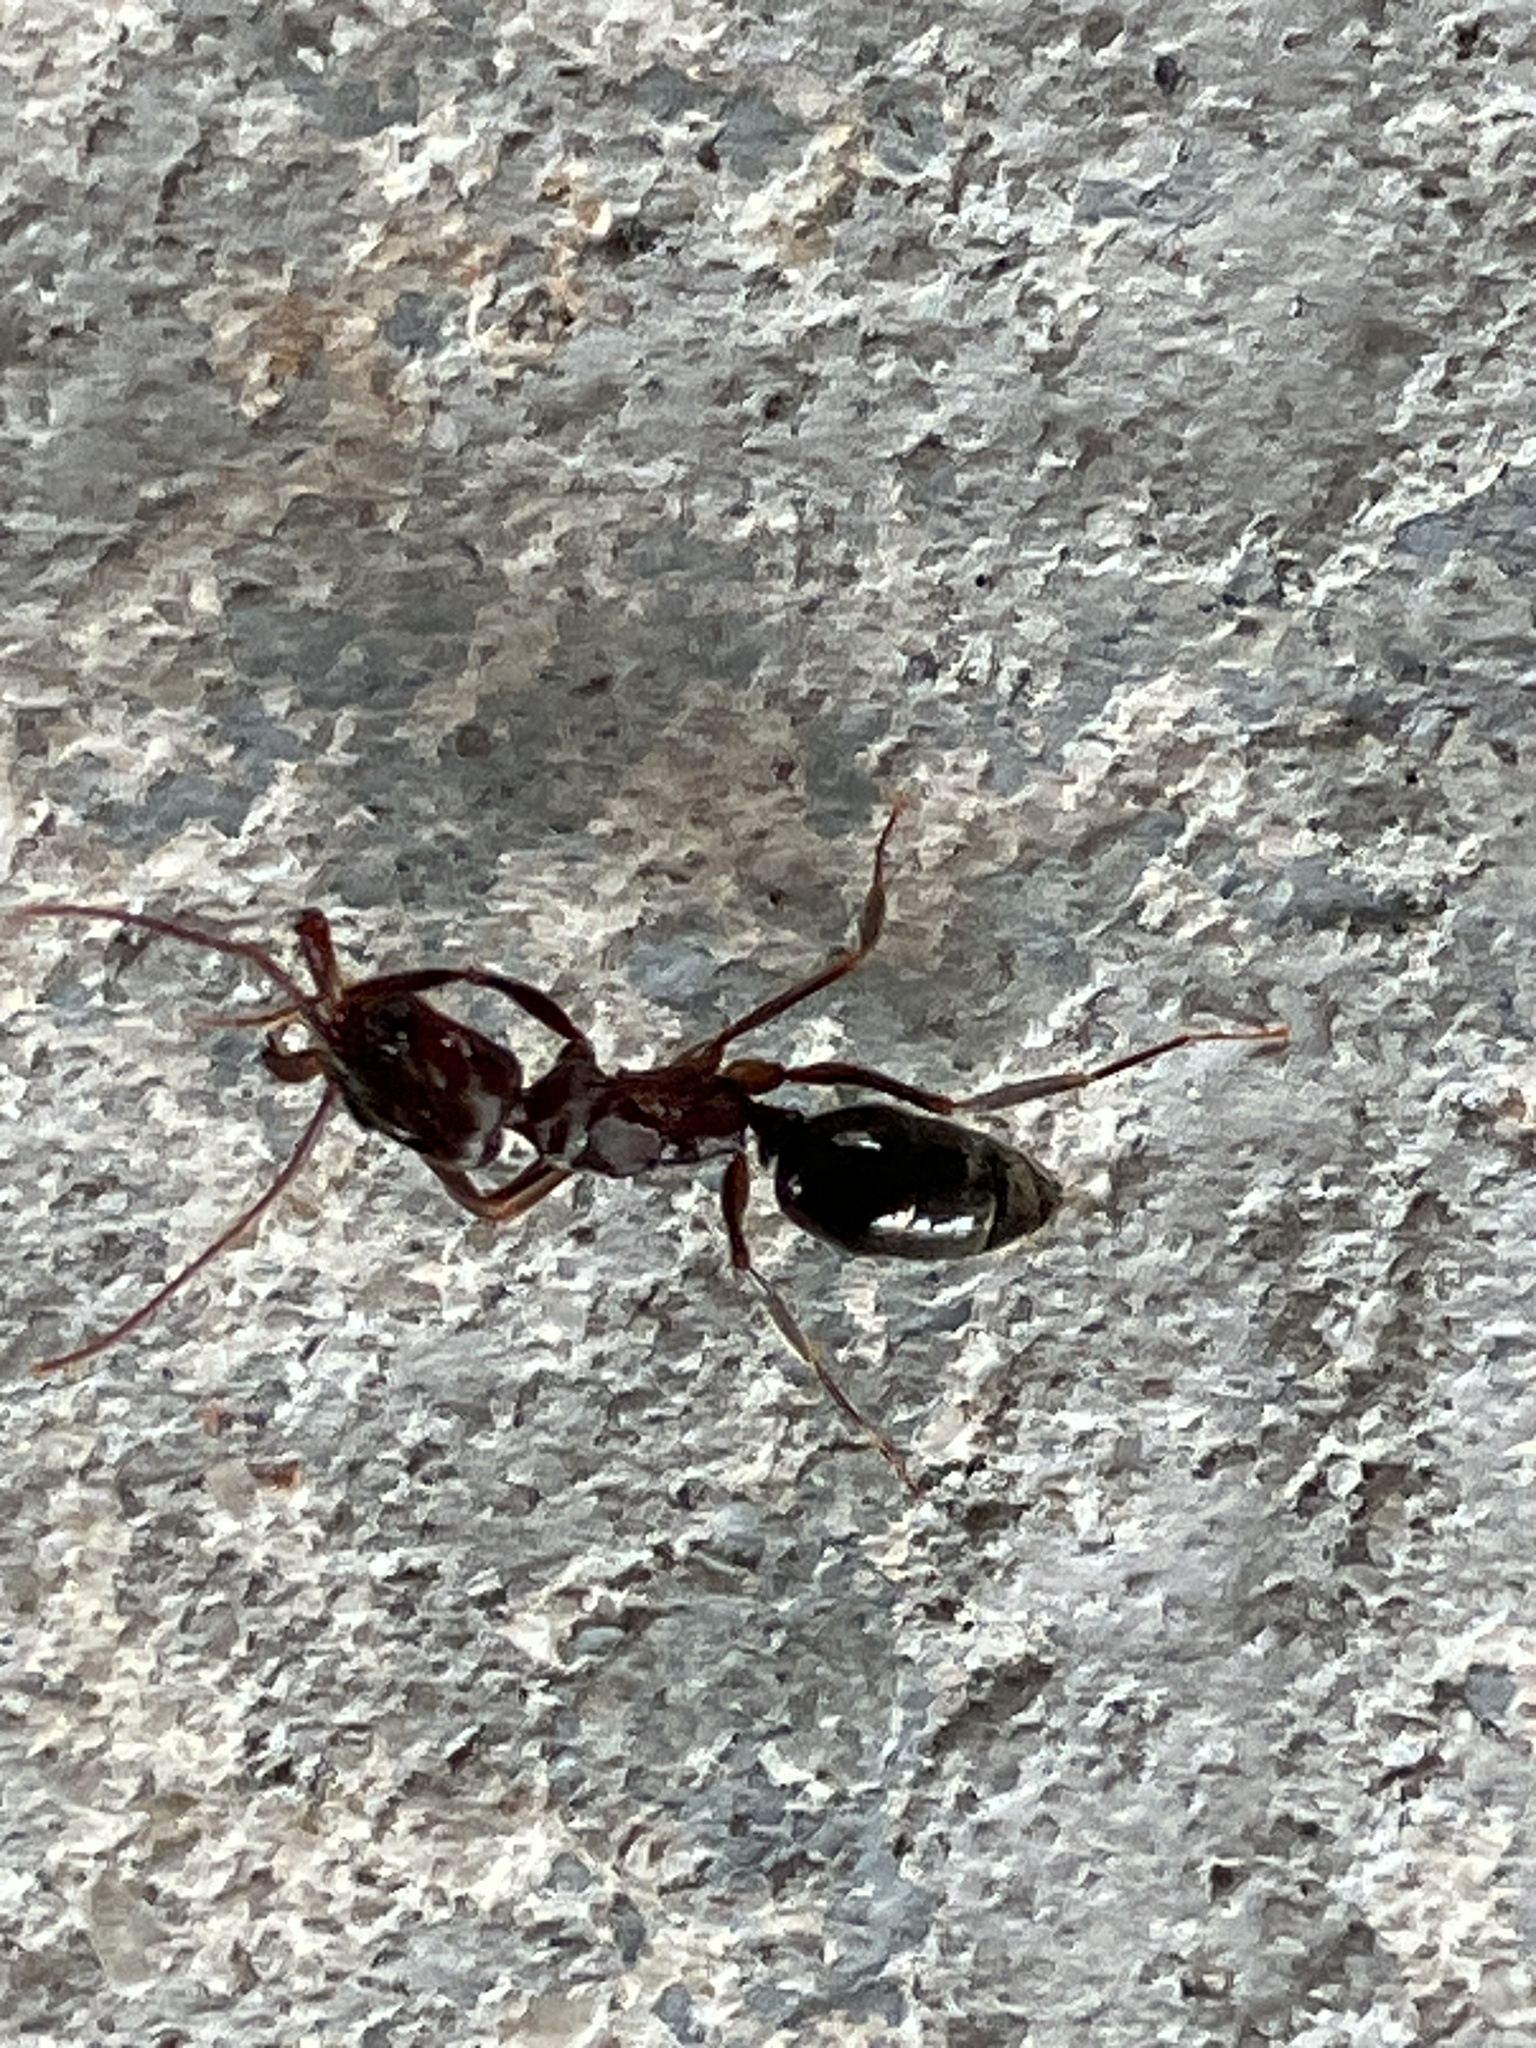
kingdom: Animalia
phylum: Arthropoda
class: Insecta
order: Hymenoptera
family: Formicidae
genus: Odontomachus
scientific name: Odontomachus brunneus
